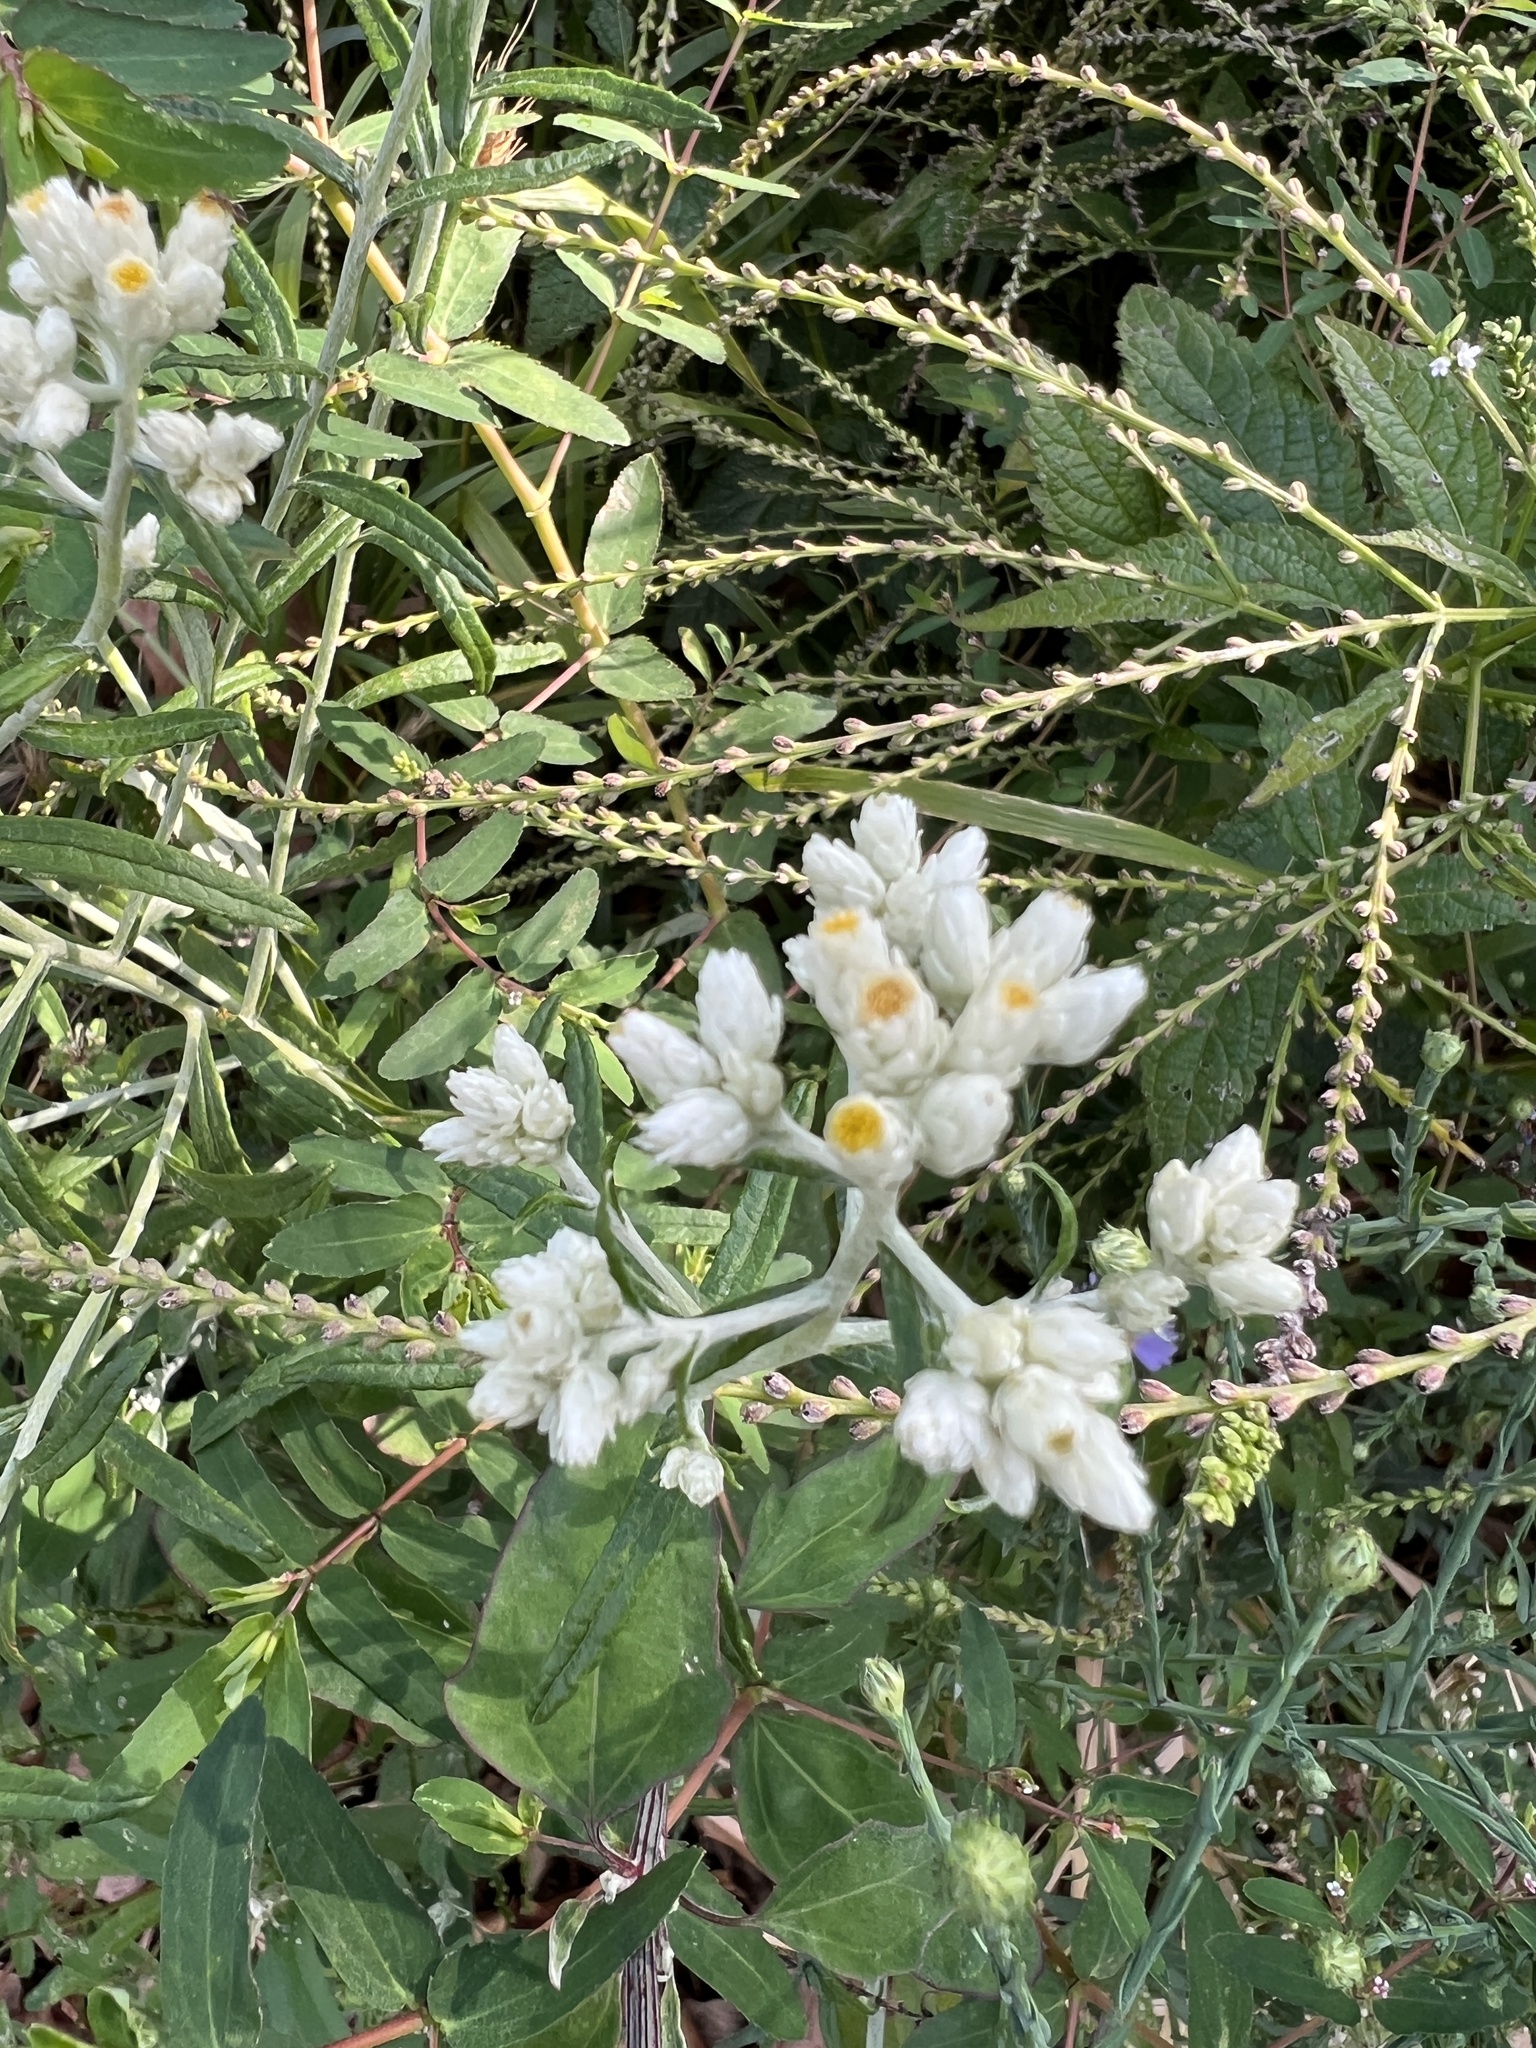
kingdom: Plantae
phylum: Tracheophyta
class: Magnoliopsida
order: Asterales
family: Asteraceae
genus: Pseudognaphalium
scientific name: Pseudognaphalium obtusifolium
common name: Eastern rabbit-tobacco
